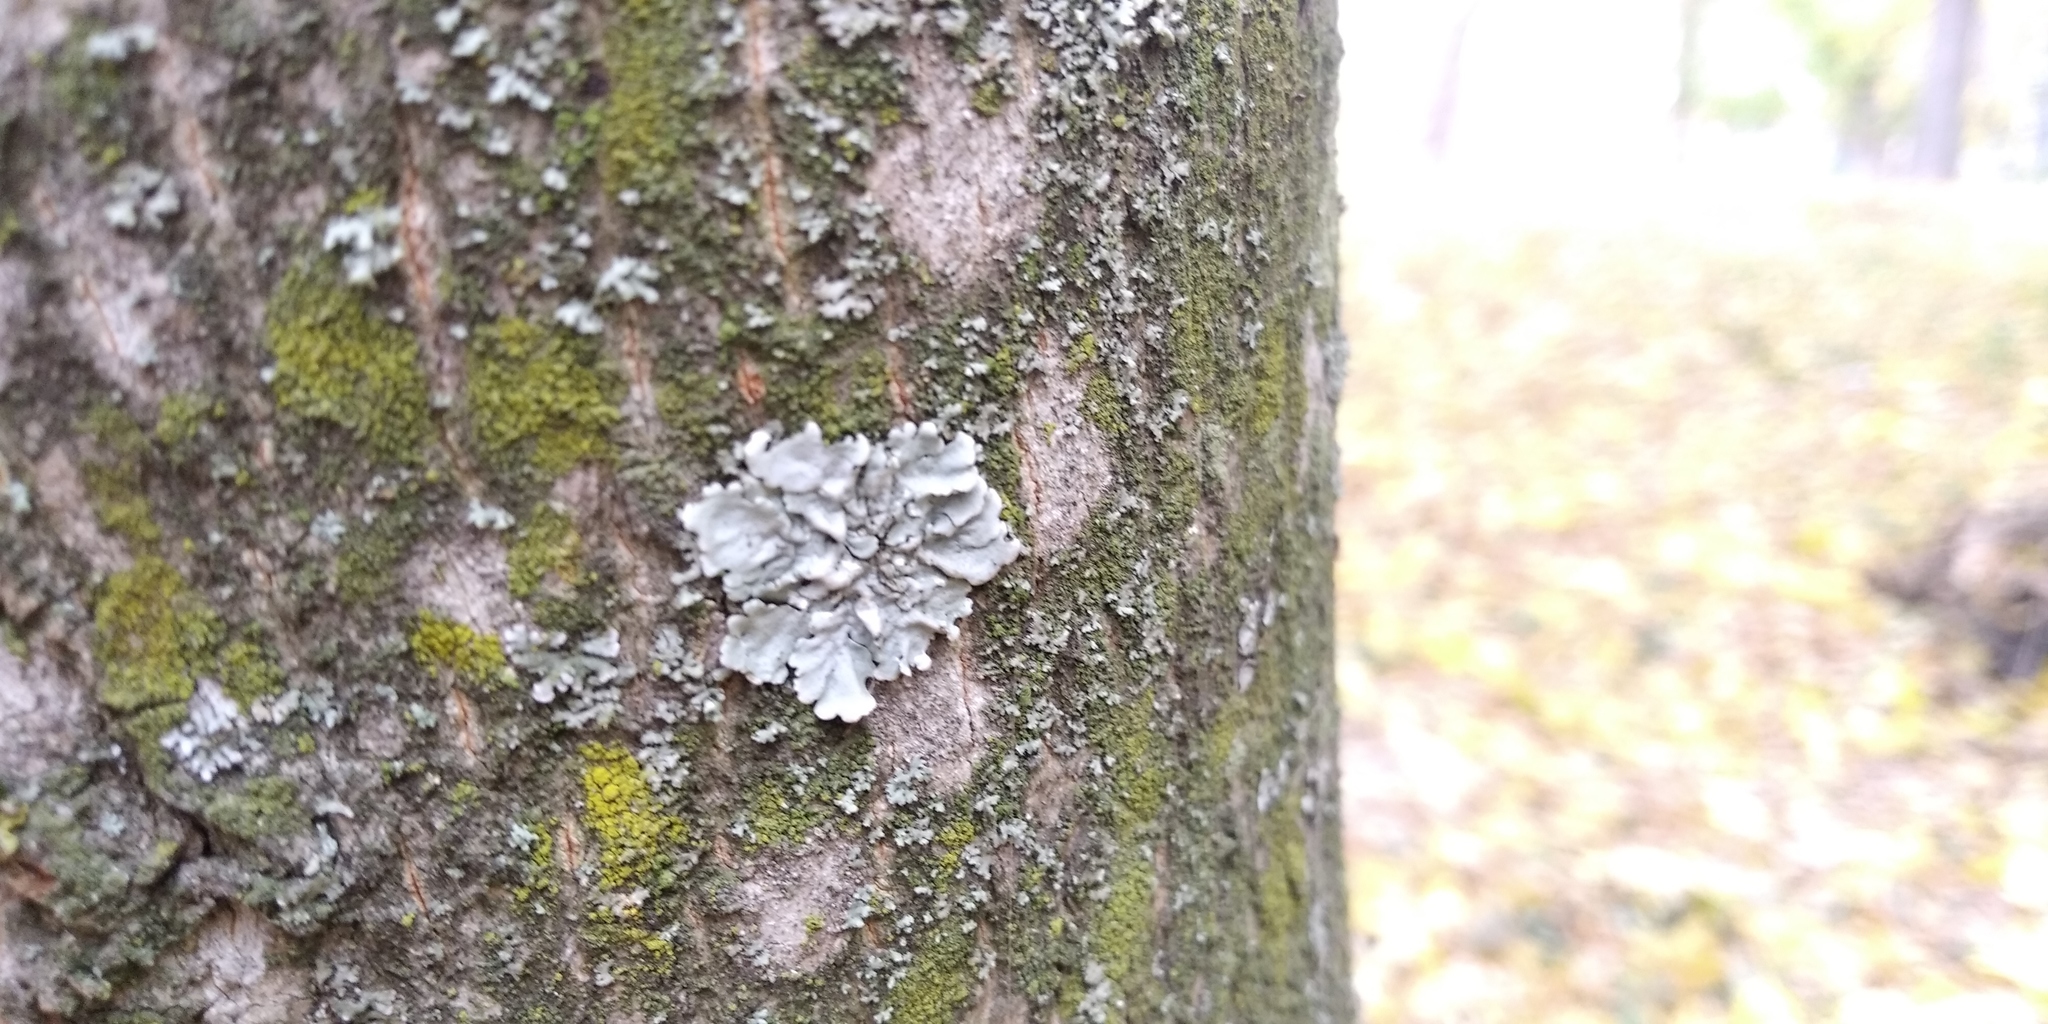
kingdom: Fungi
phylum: Ascomycota
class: Lecanoromycetes
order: Lecanorales
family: Parmeliaceae
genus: Parmelina
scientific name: Parmelina tiliacea
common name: Linden shield lichen
